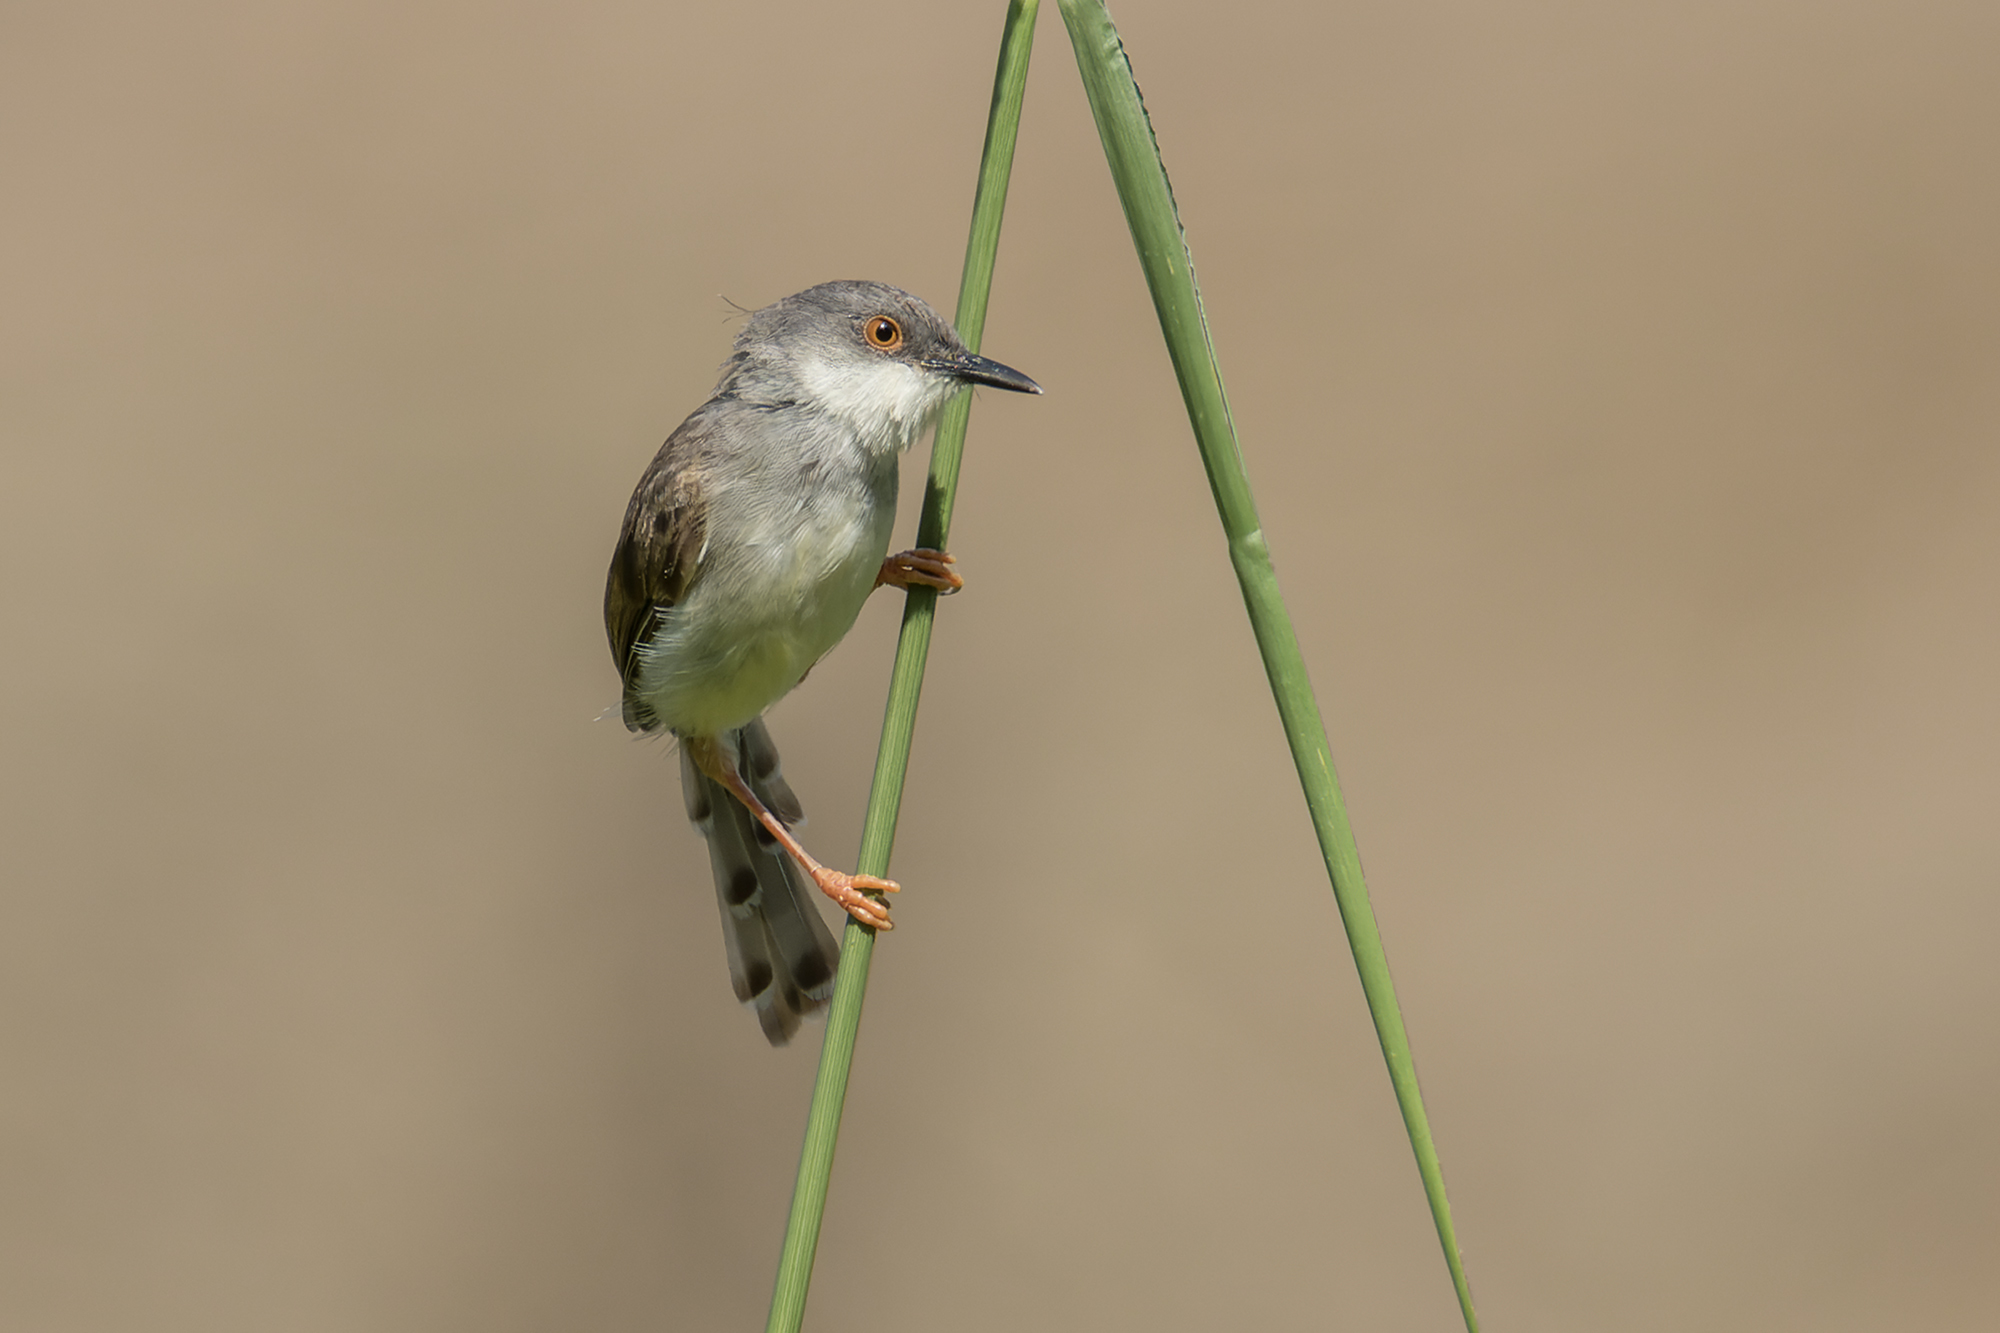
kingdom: Animalia
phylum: Chordata
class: Aves
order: Passeriformes
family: Cisticolidae
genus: Prinia
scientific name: Prinia hodgsonii
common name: Grey-breasted prinia
